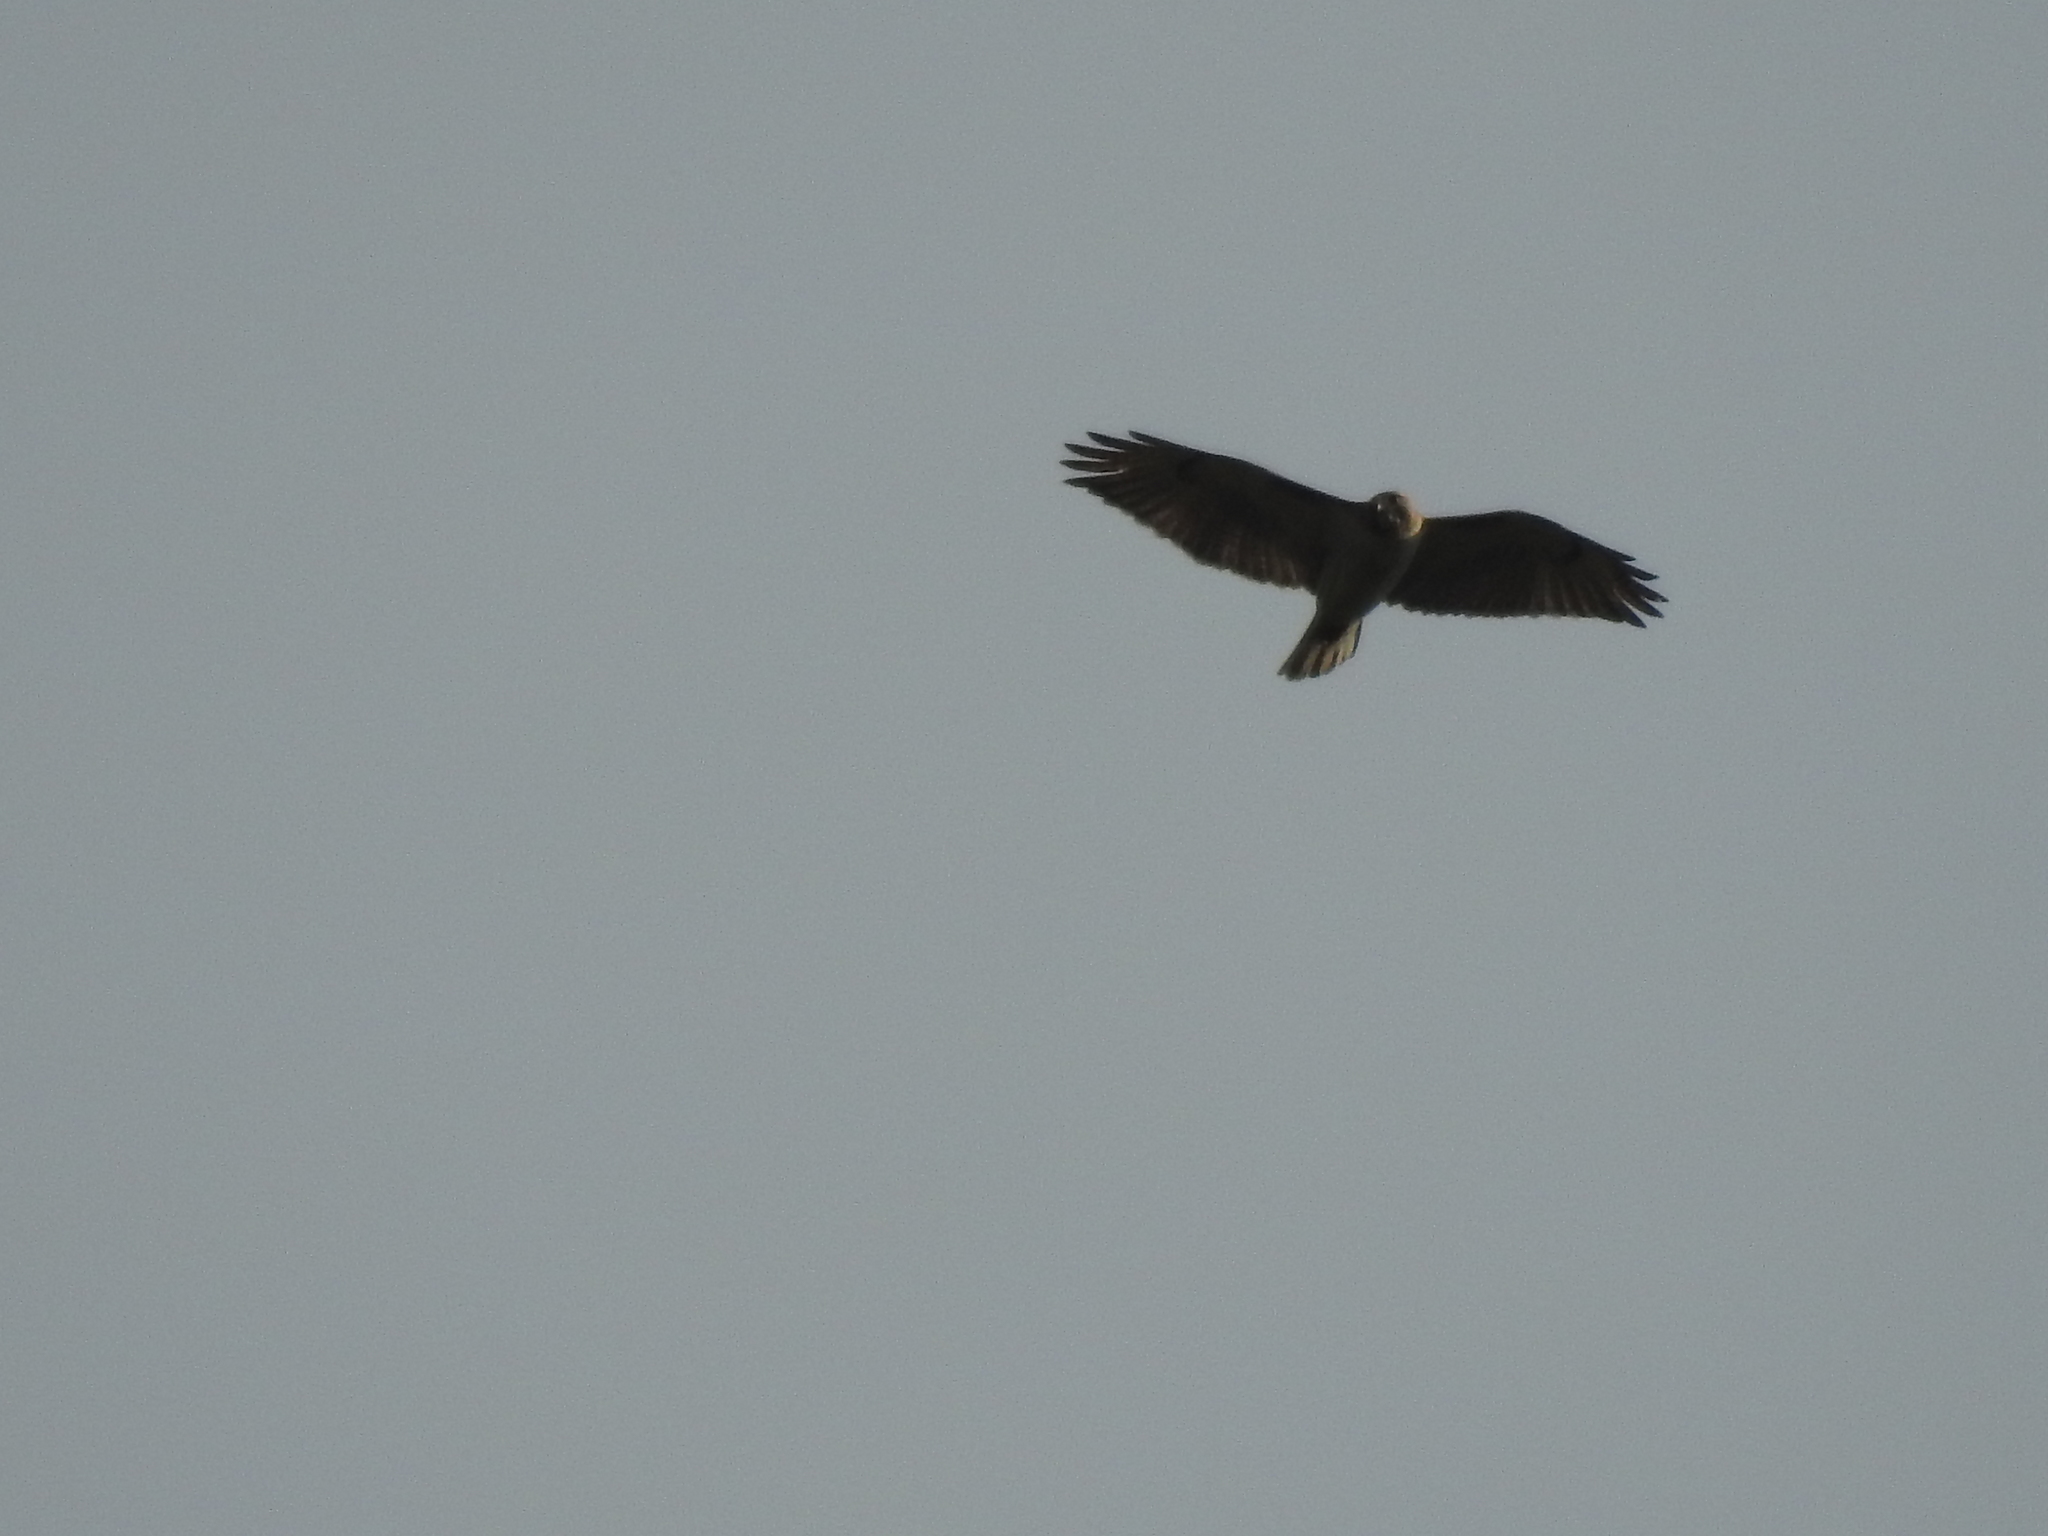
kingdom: Animalia
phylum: Chordata
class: Aves
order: Accipitriformes
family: Accipitridae
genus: Buteo
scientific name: Buteo jamaicensis
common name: Red-tailed hawk
